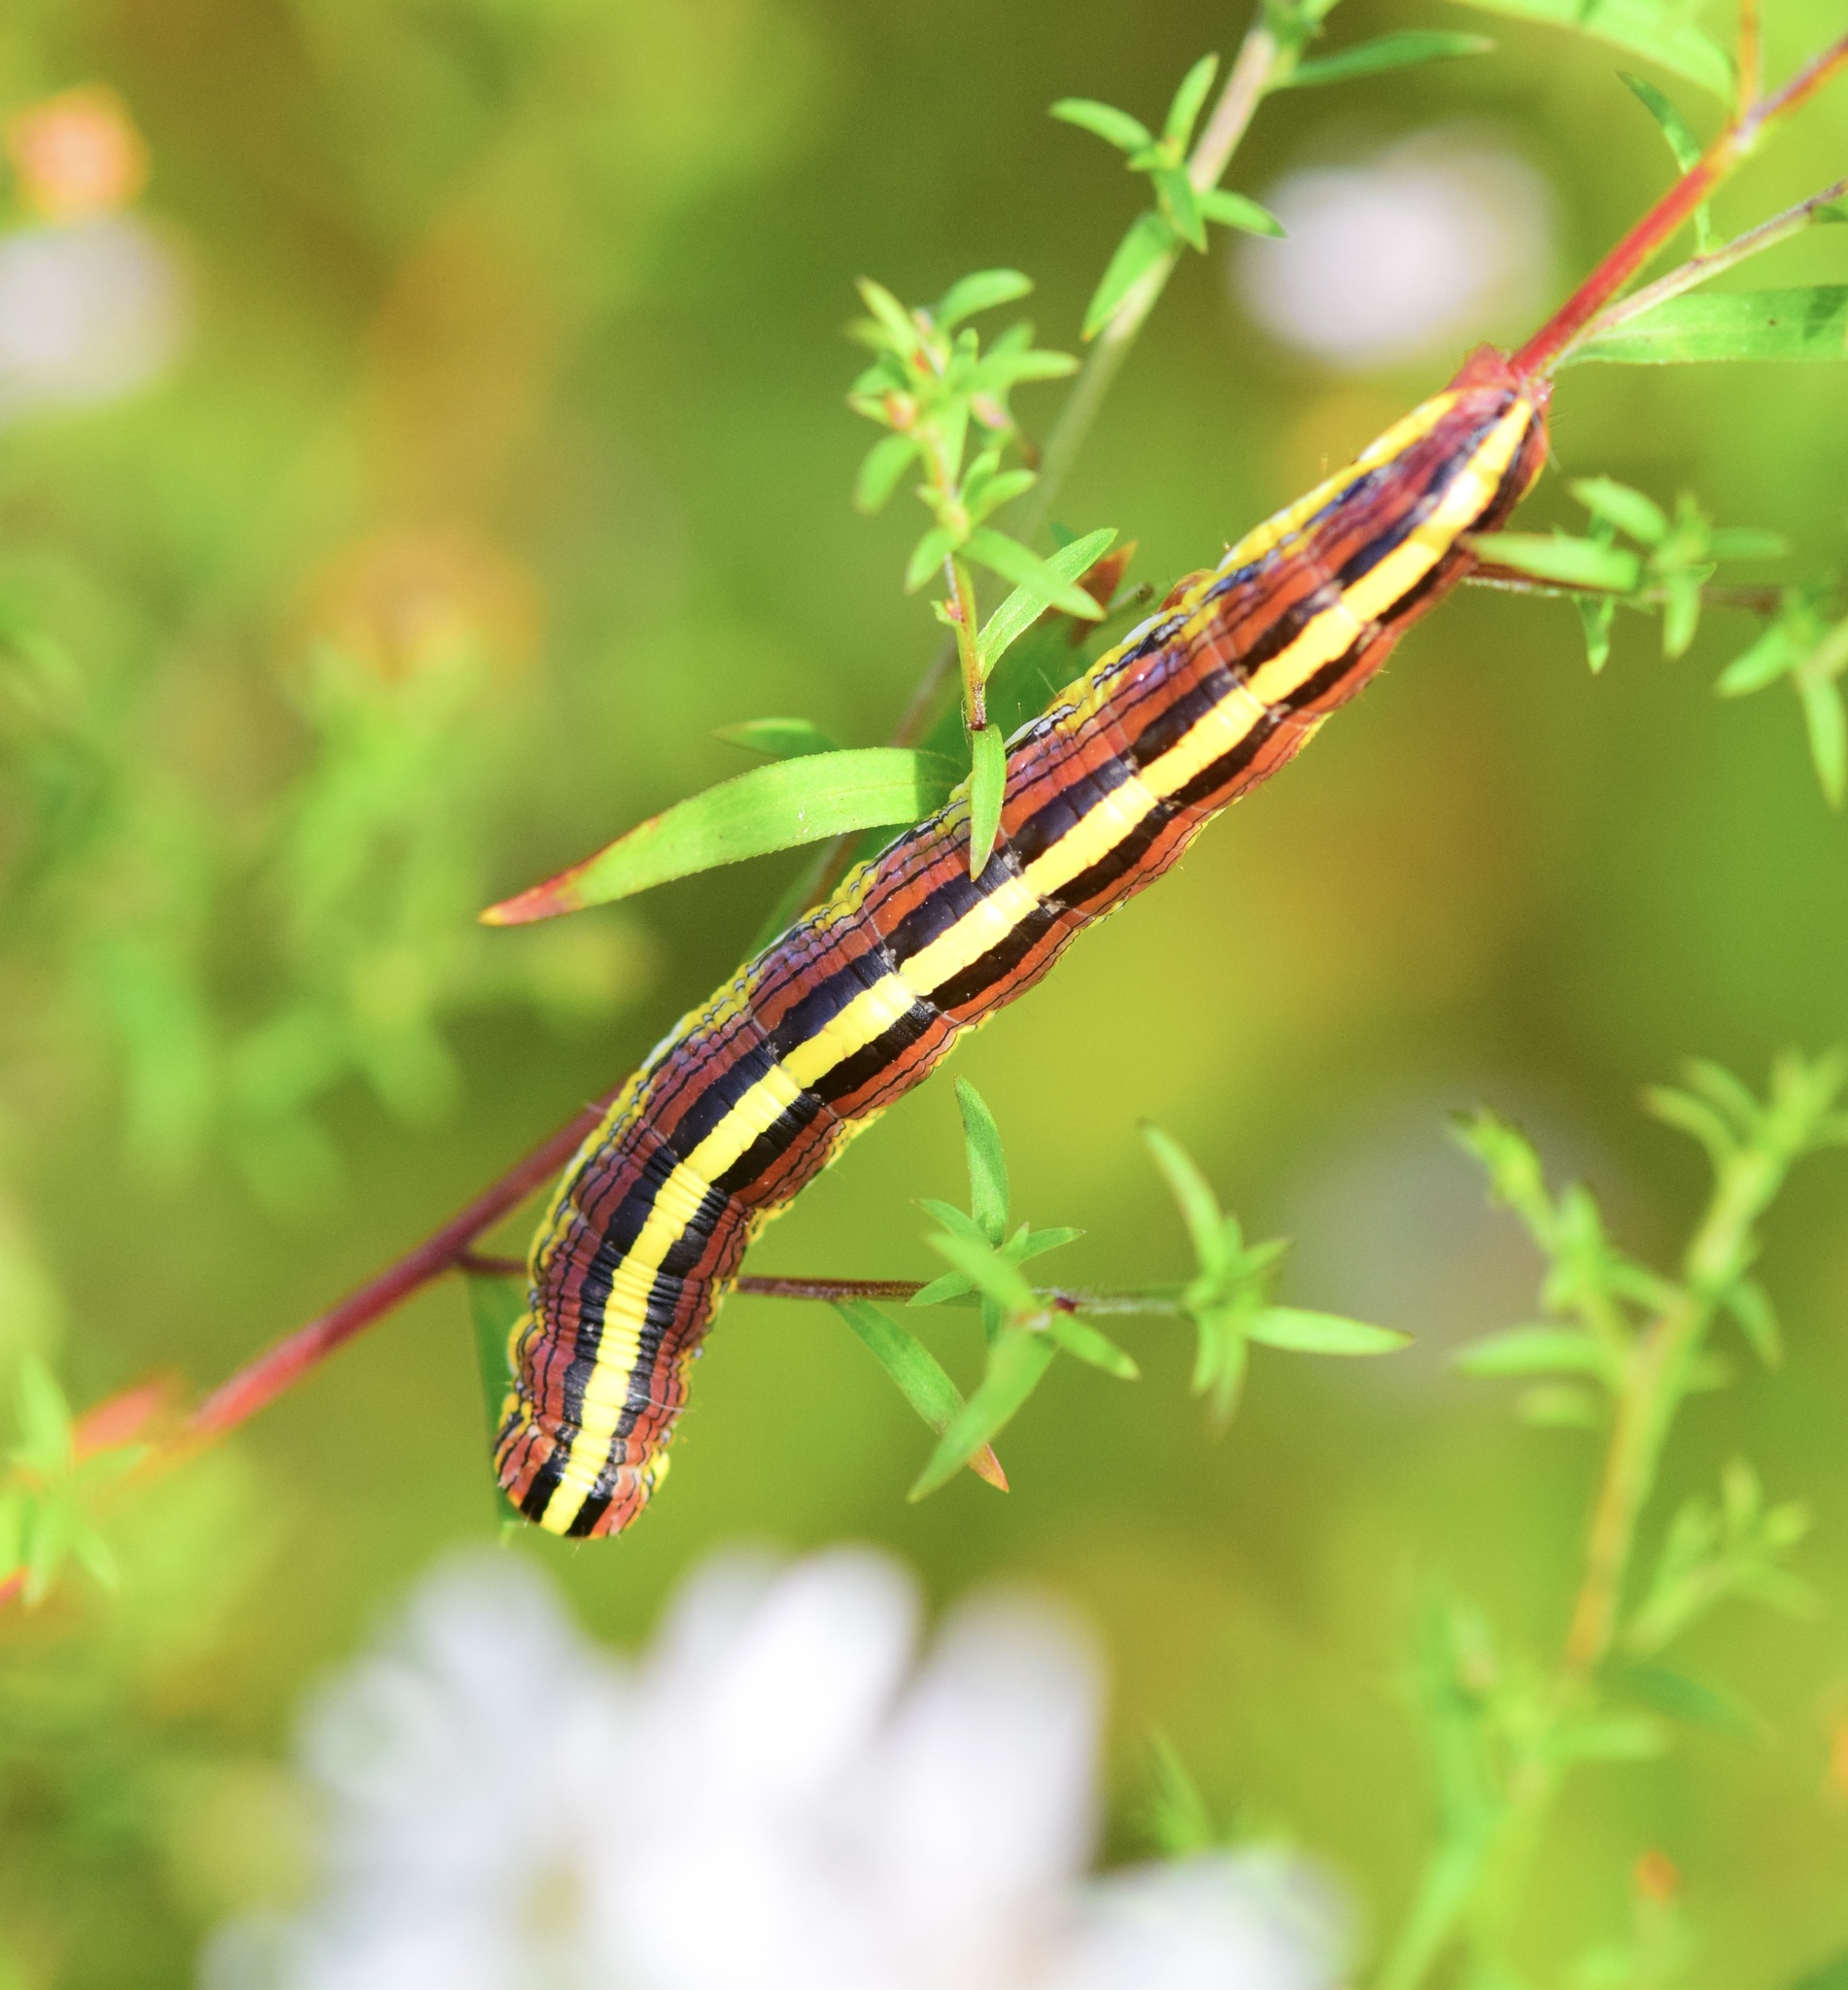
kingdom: Animalia
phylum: Arthropoda
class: Insecta
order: Lepidoptera
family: Noctuidae
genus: Cucullia
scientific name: Cucullia asteroides
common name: Asteroid moth
